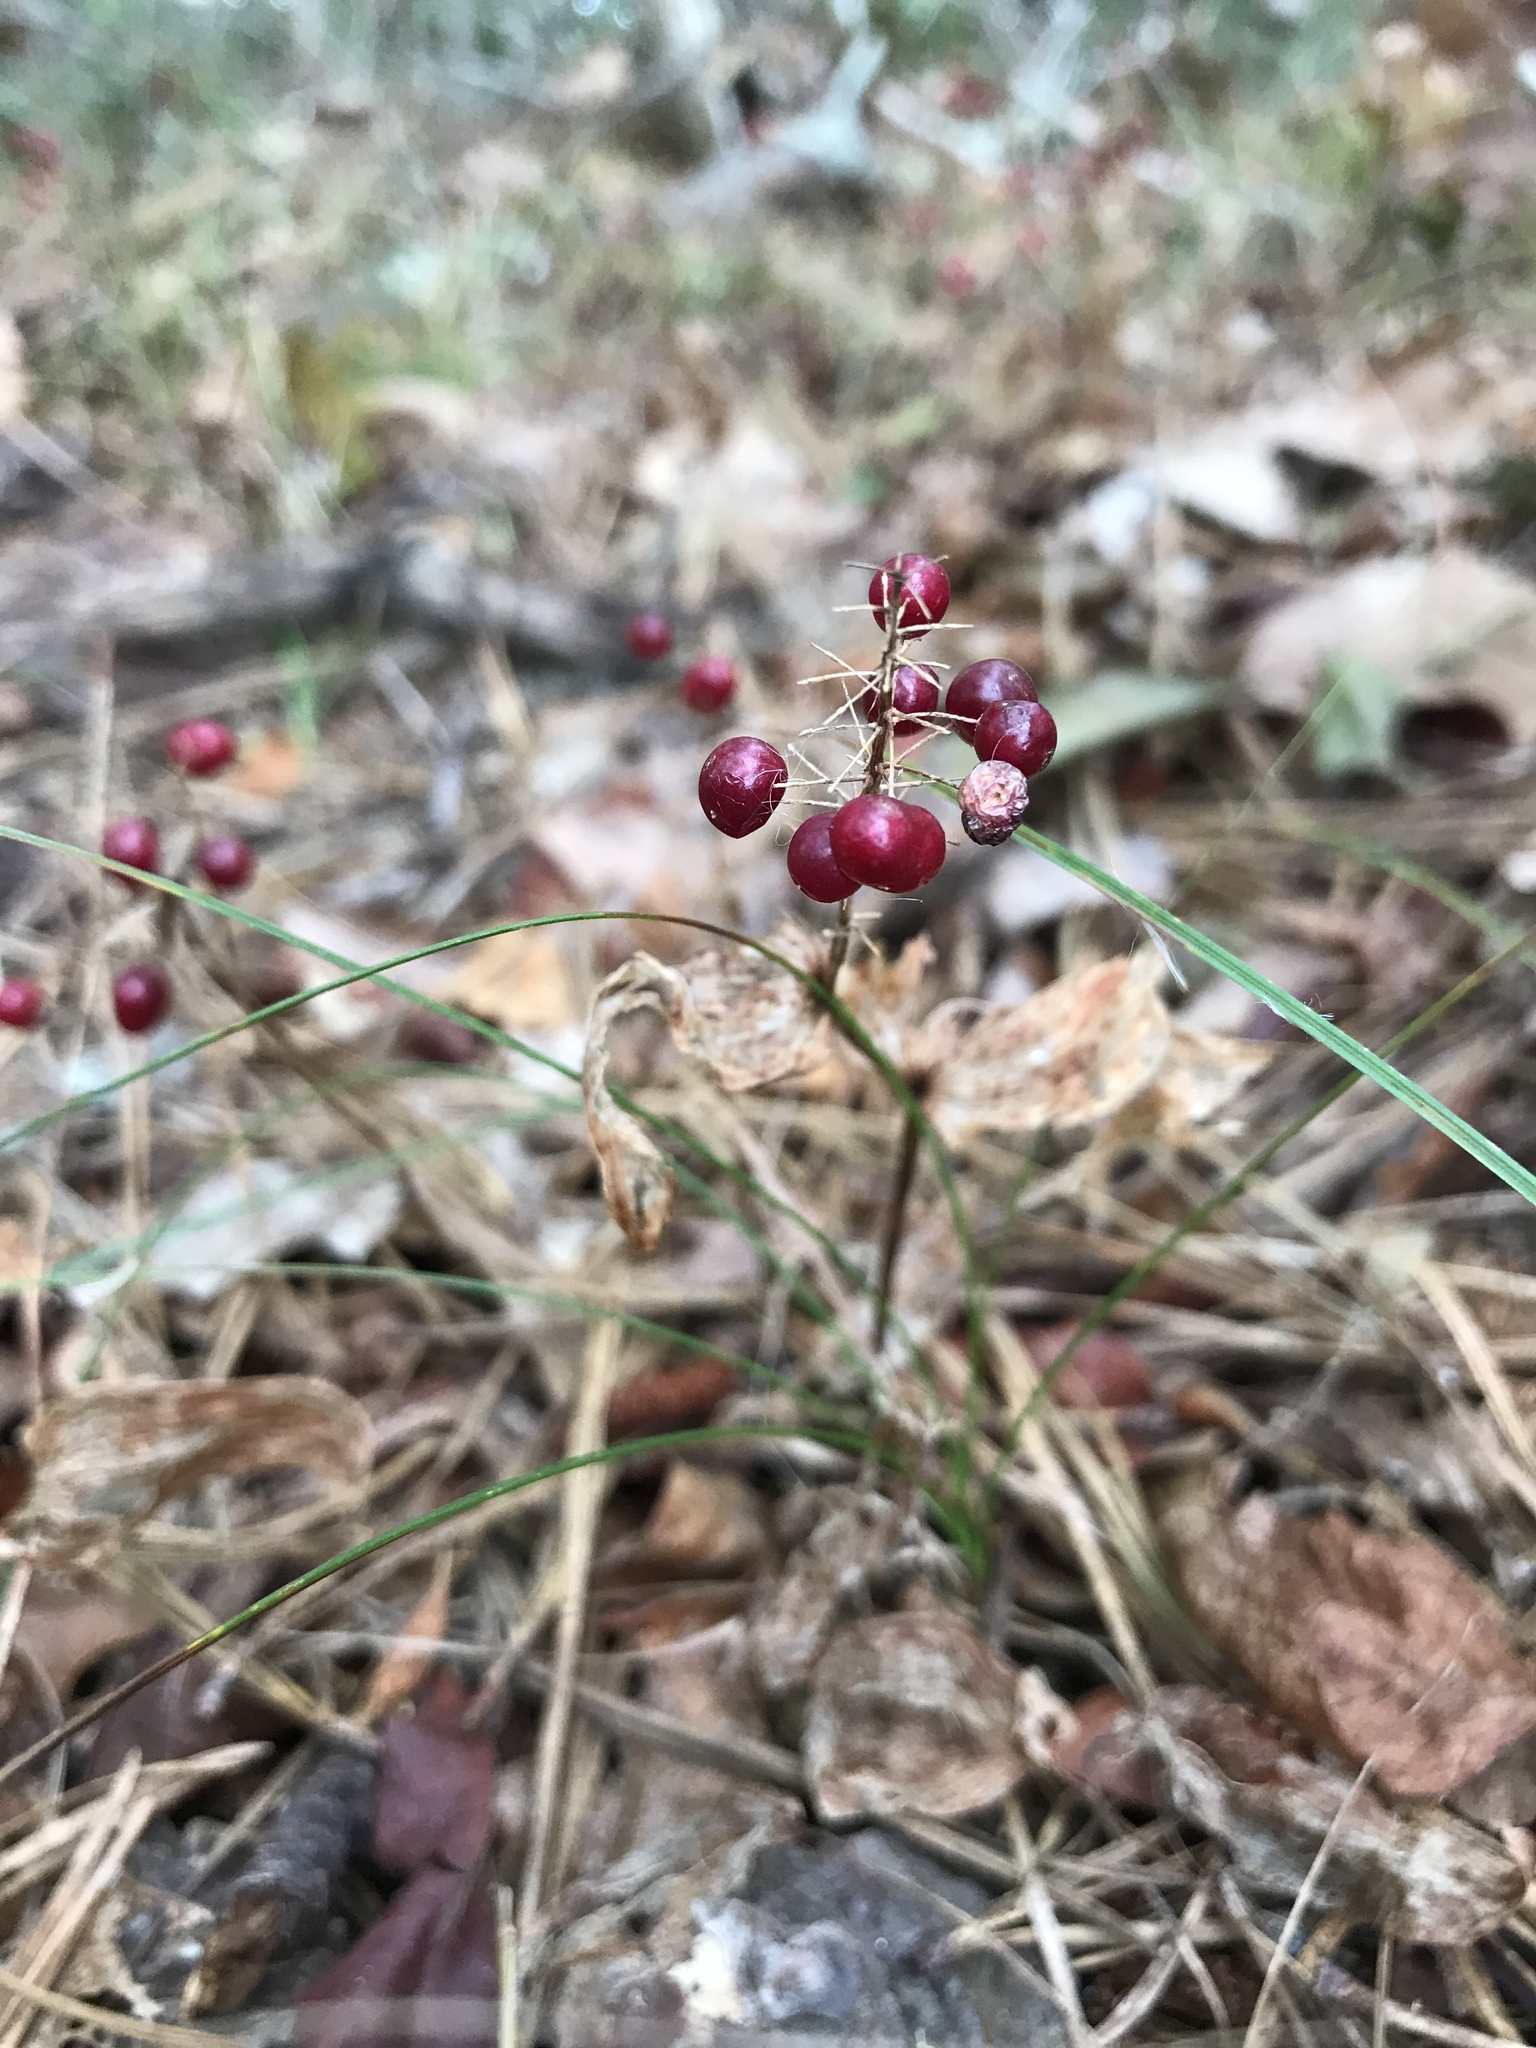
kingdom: Plantae
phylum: Tracheophyta
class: Liliopsida
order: Asparagales
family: Asparagaceae
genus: Maianthemum
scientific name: Maianthemum canadense
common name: False lily-of-the-valley
